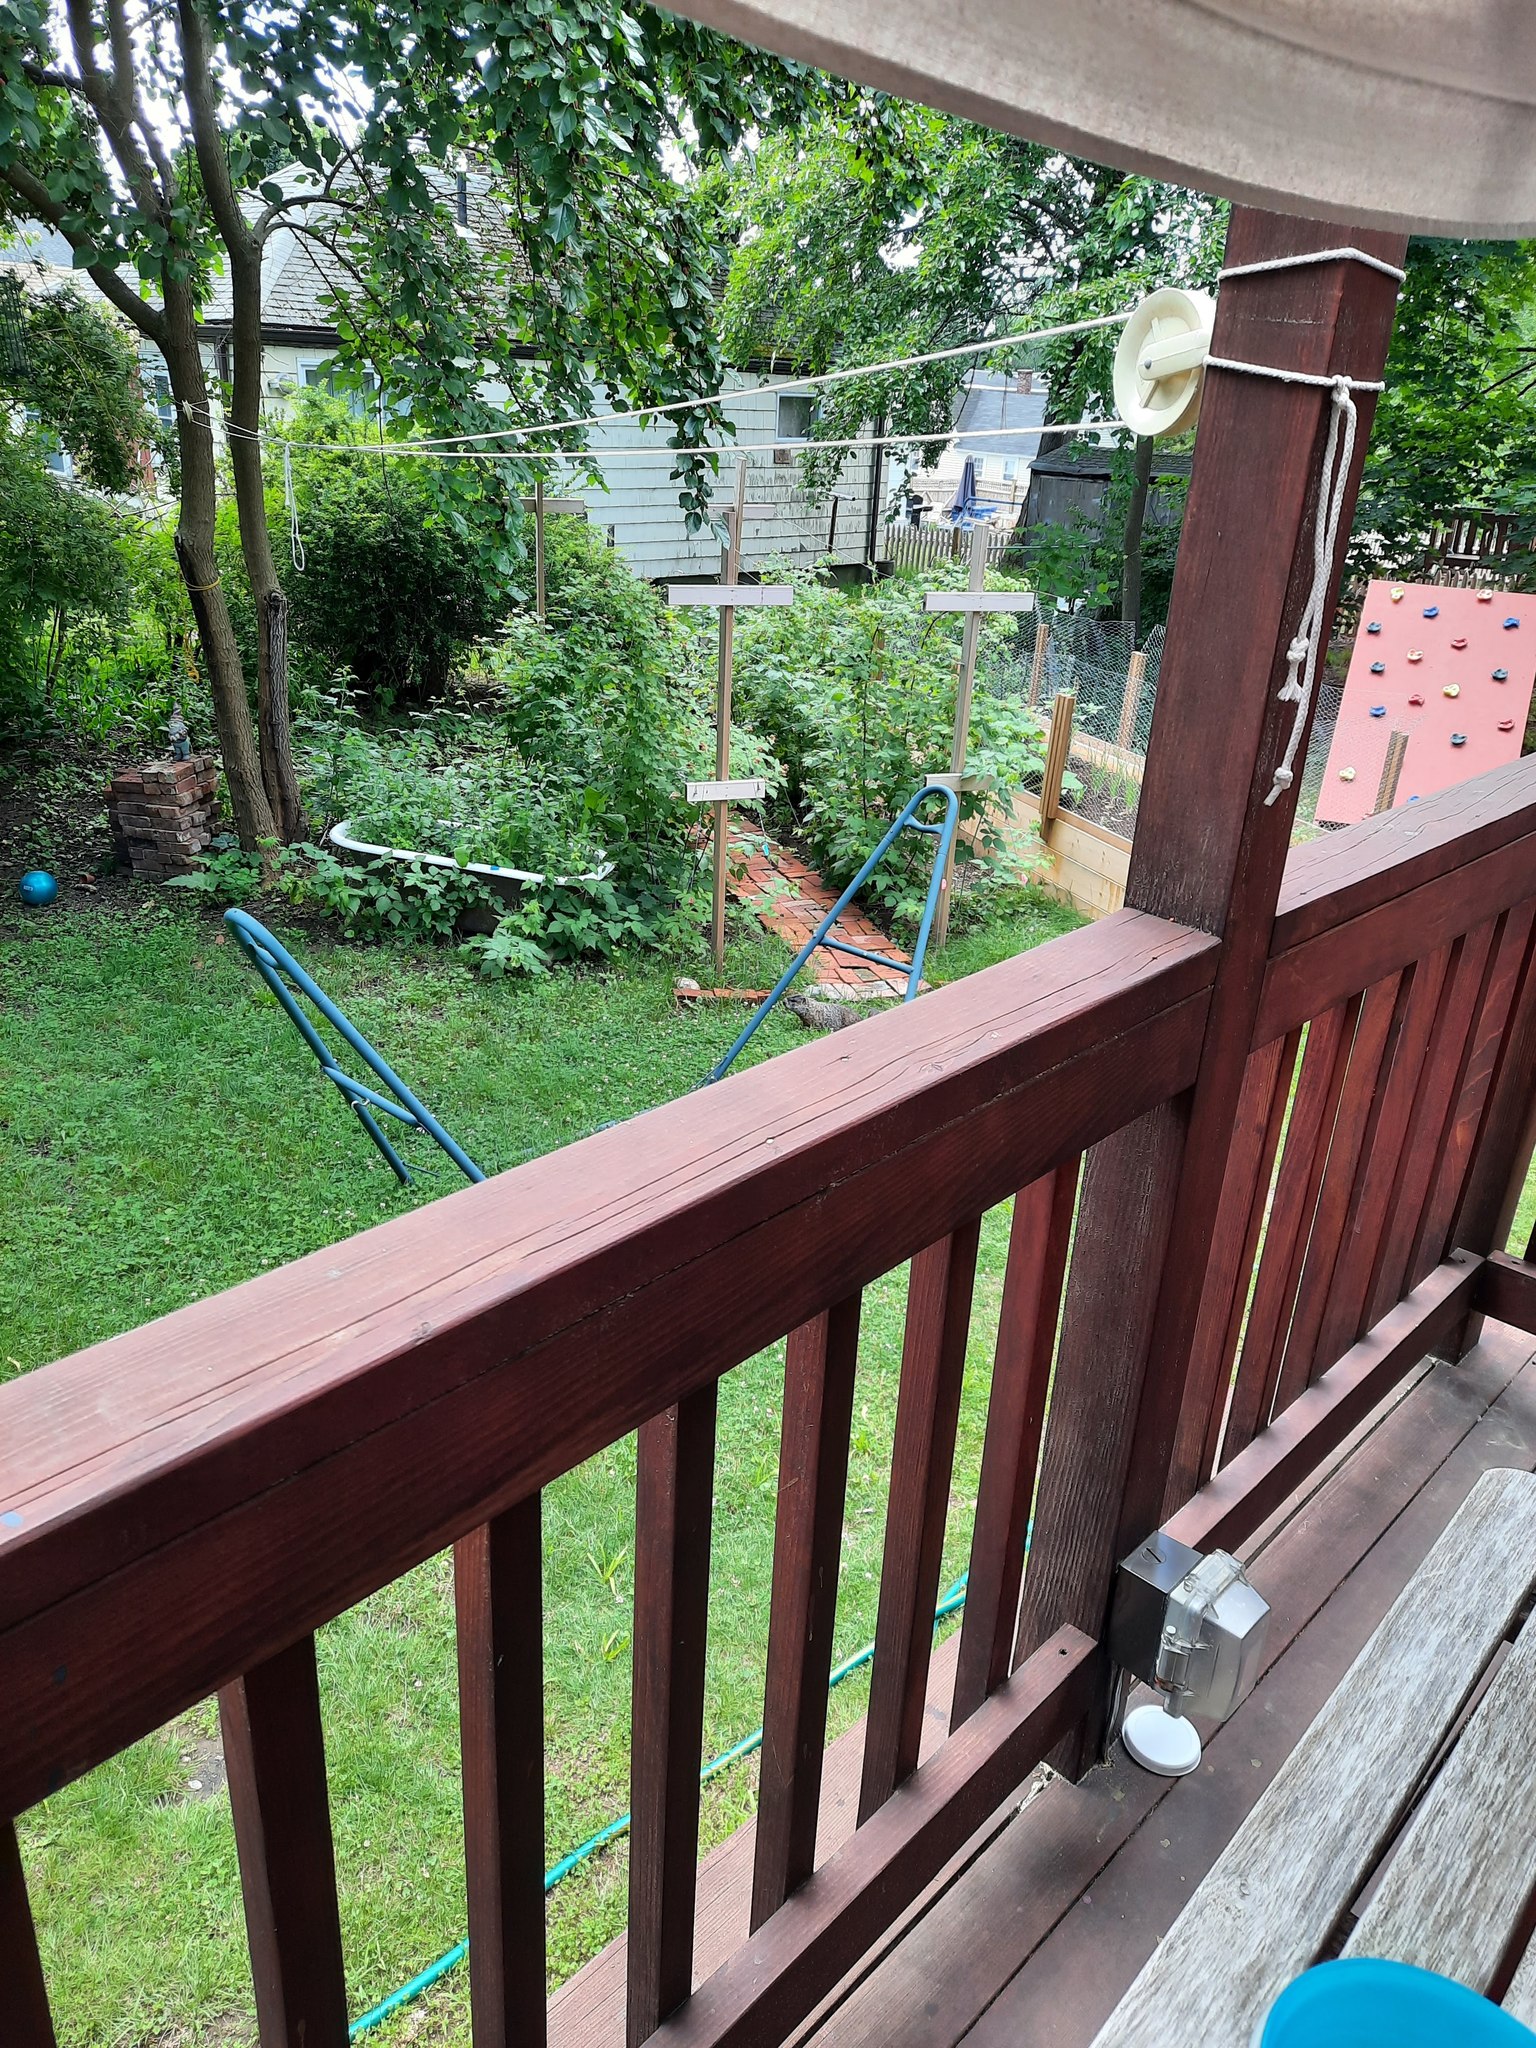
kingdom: Animalia
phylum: Chordata
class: Mammalia
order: Rodentia
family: Sciuridae
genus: Marmota
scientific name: Marmota monax
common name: Groundhog
